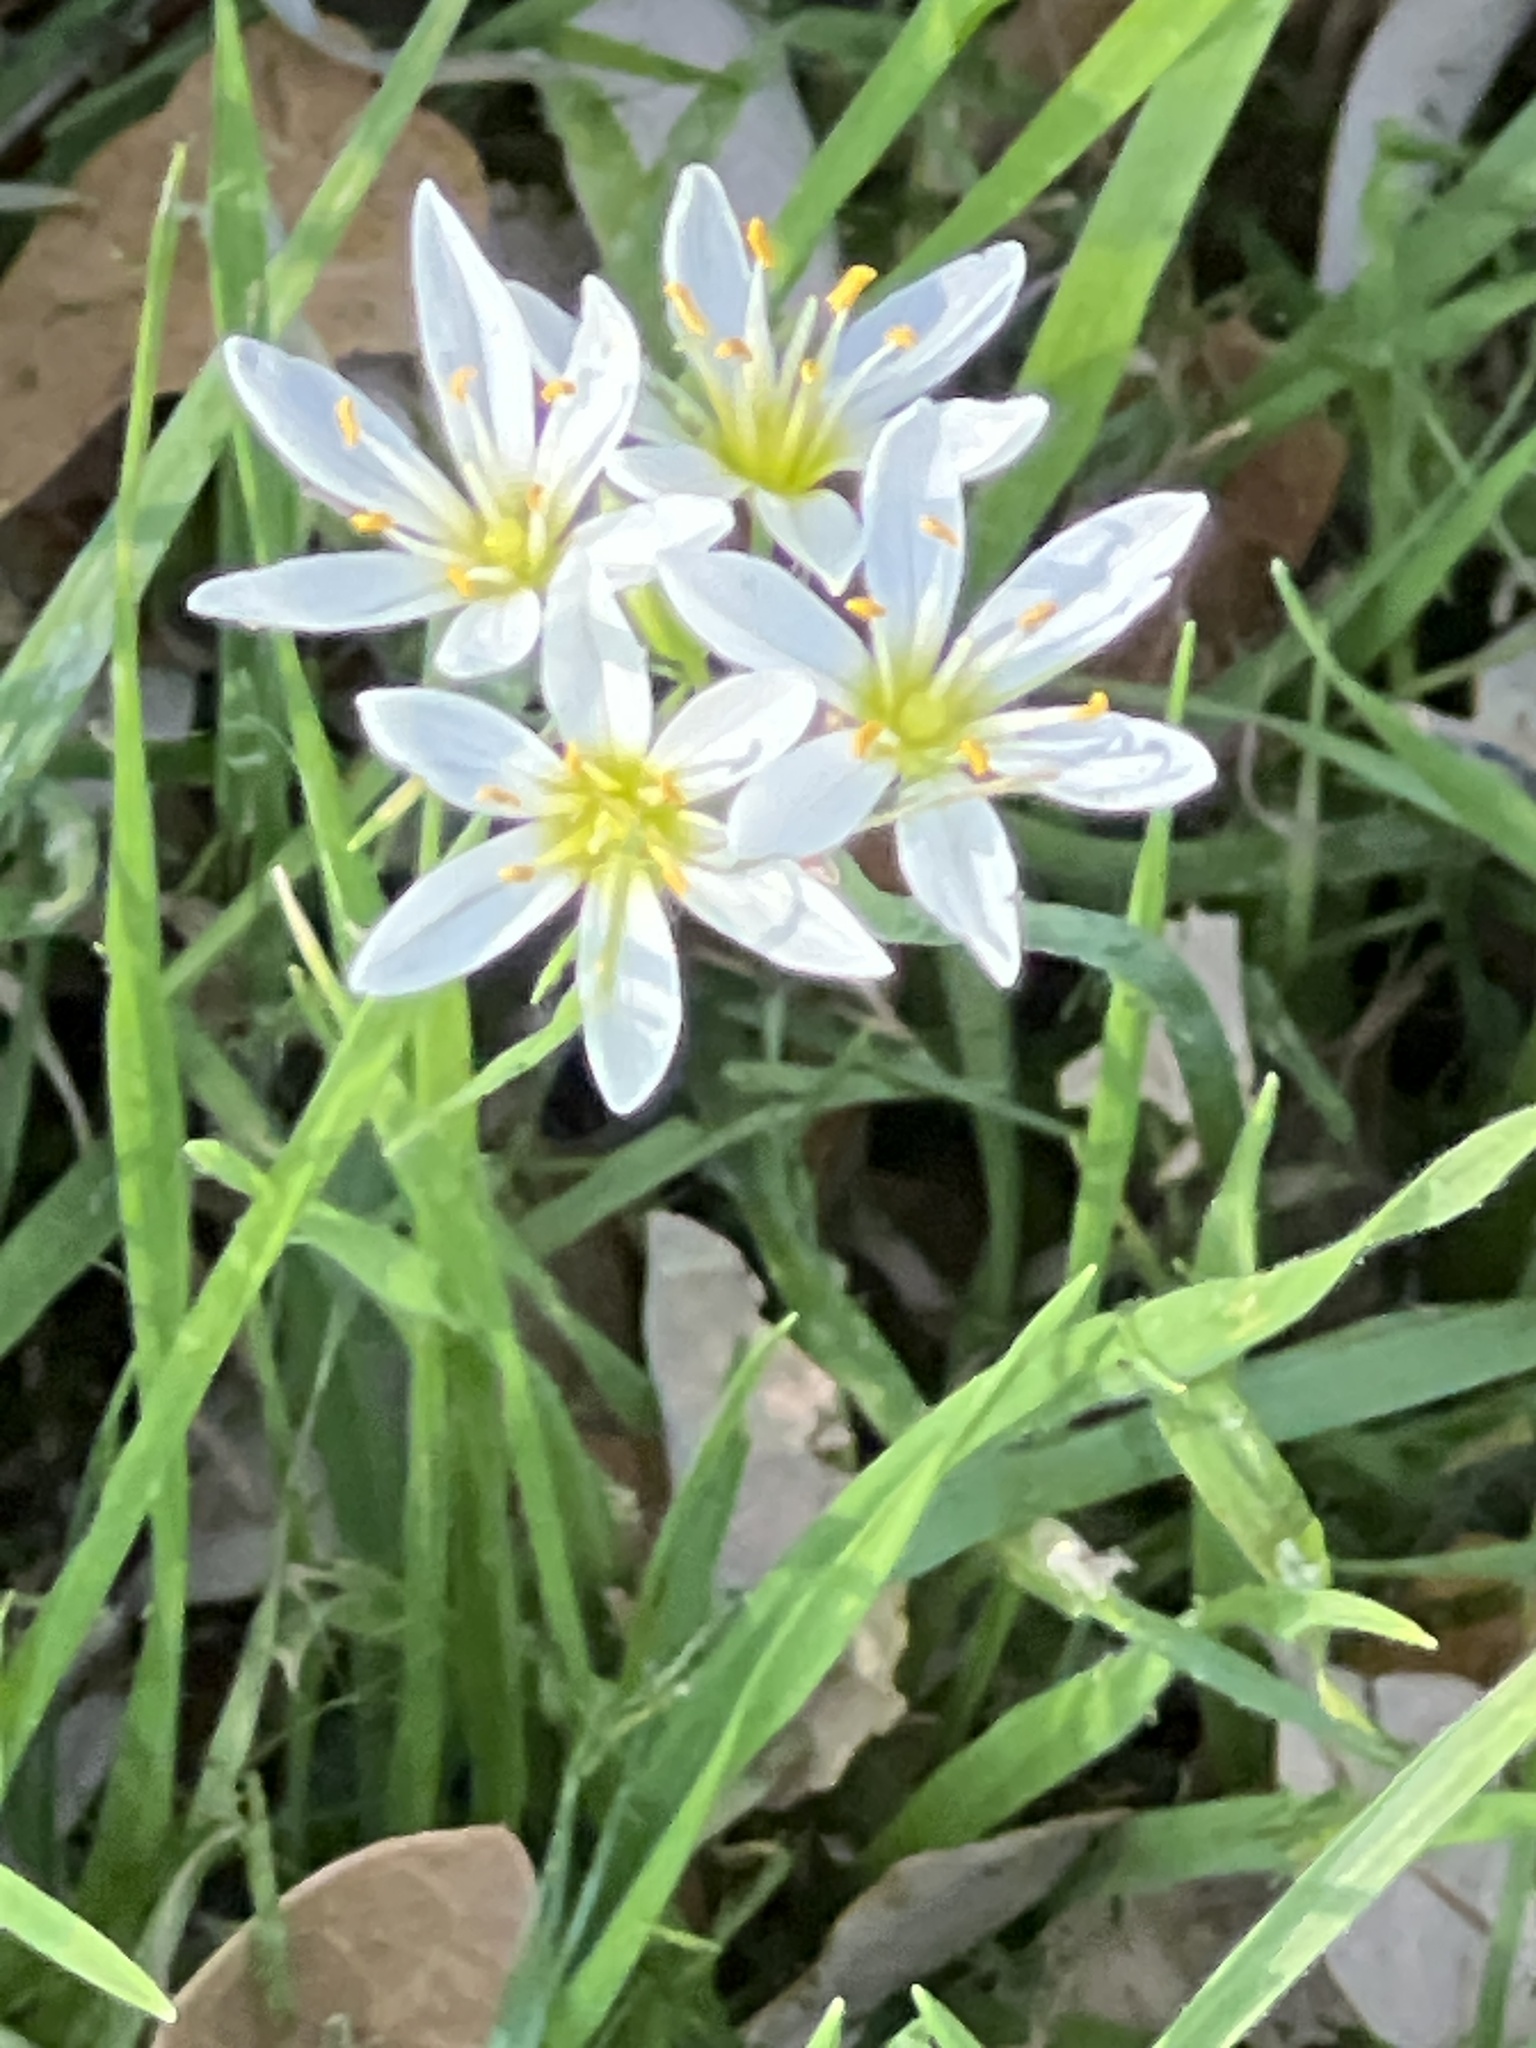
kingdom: Plantae
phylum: Tracheophyta
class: Liliopsida
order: Asparagales
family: Amaryllidaceae
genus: Nothoscordum
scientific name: Nothoscordum bivalve
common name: Crow-poison
